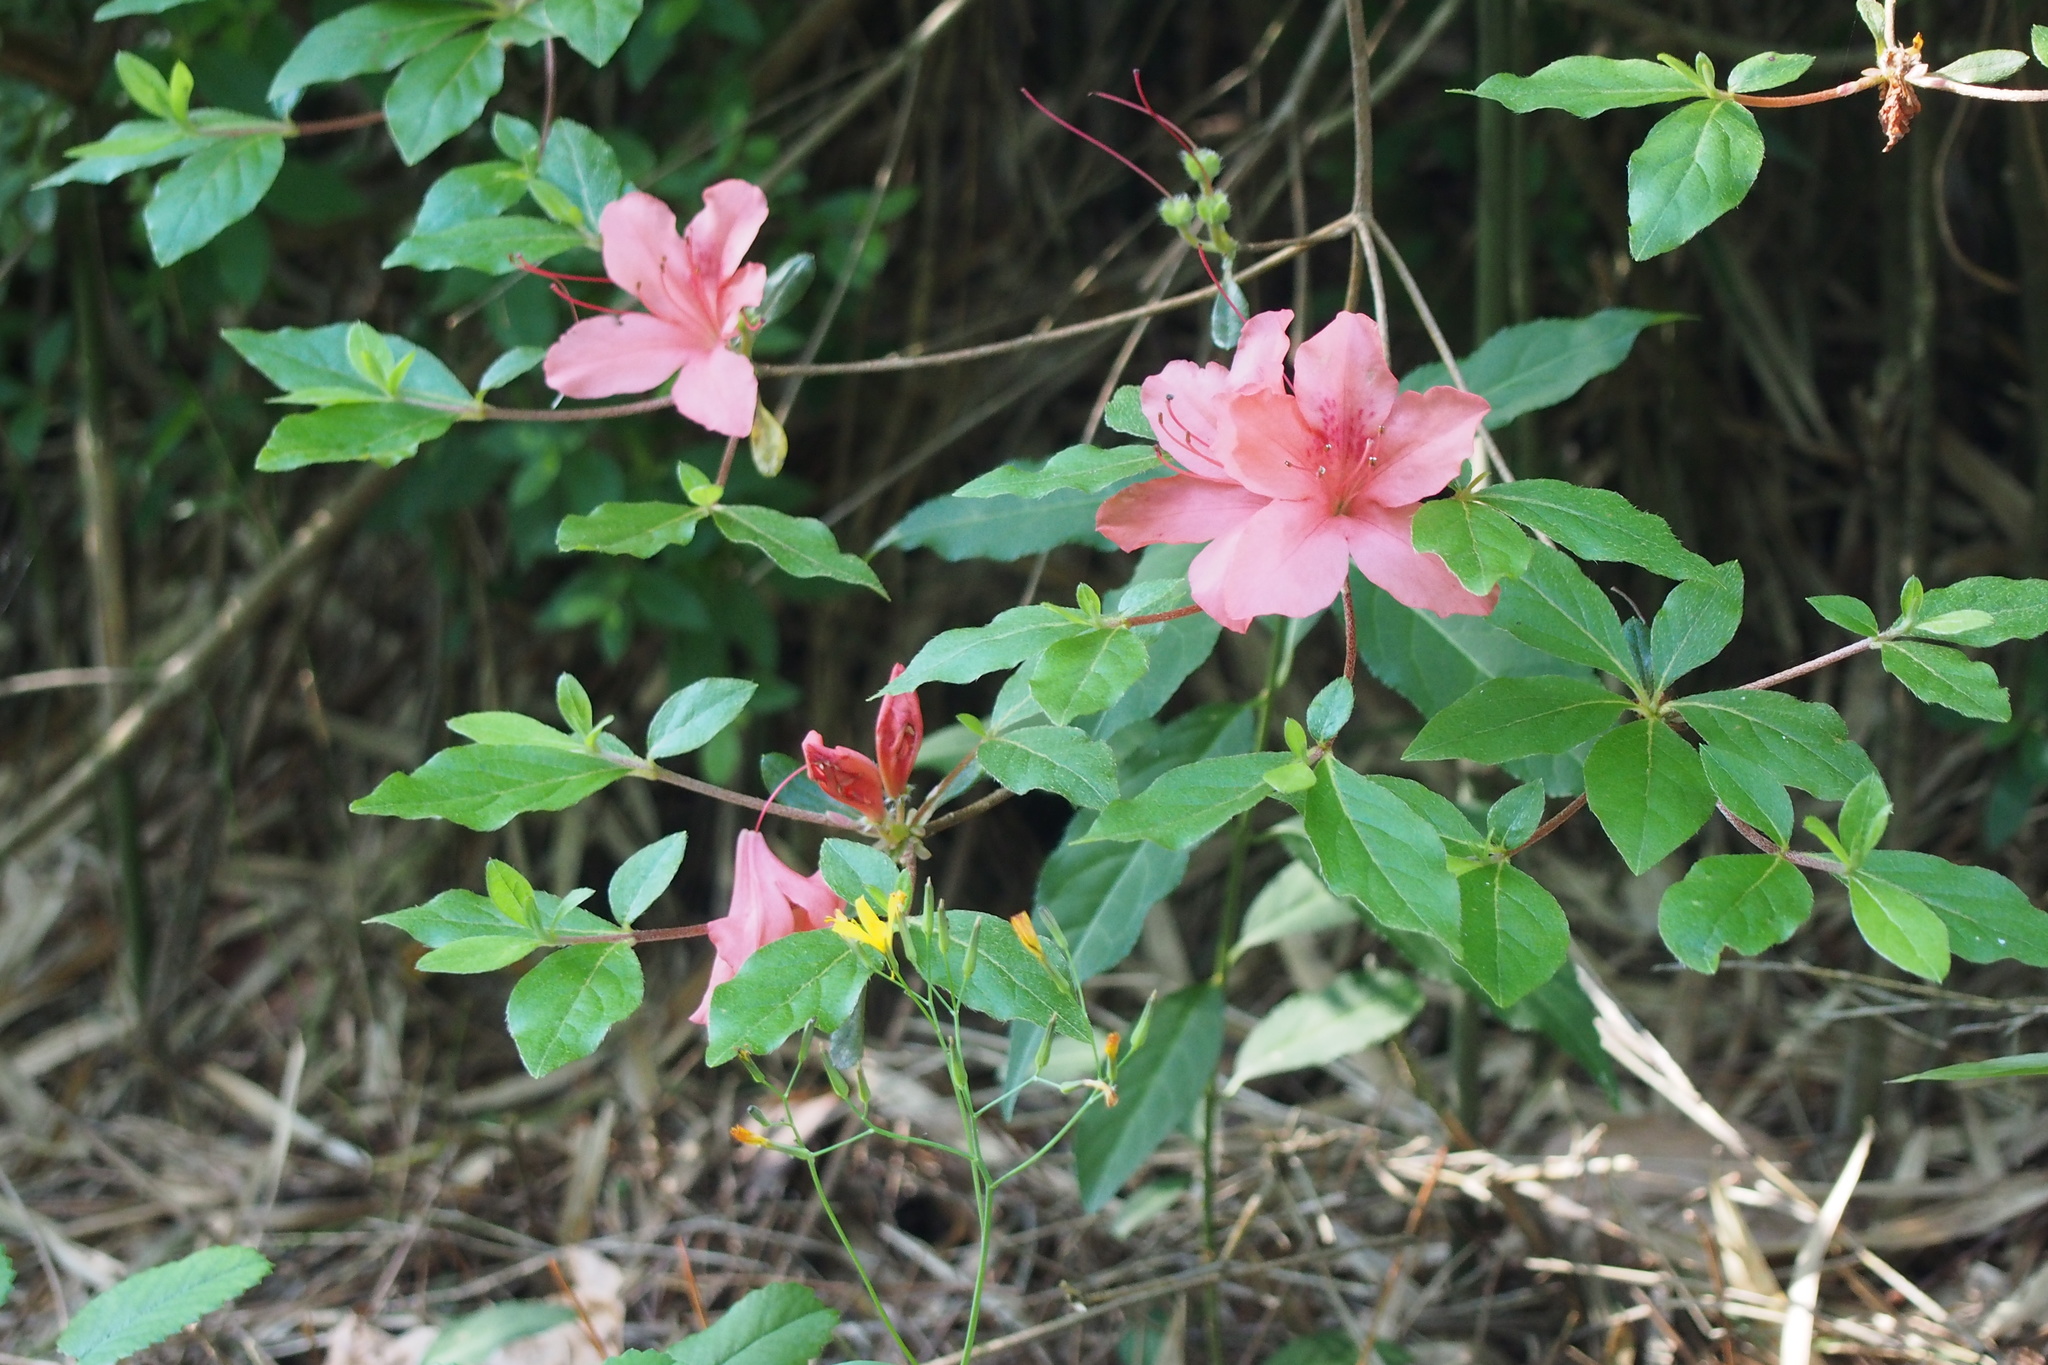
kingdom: Plantae
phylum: Tracheophyta
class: Magnoliopsida
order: Ericales
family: Ericaceae
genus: Rhododendron
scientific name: Rhododendron kaempferi
